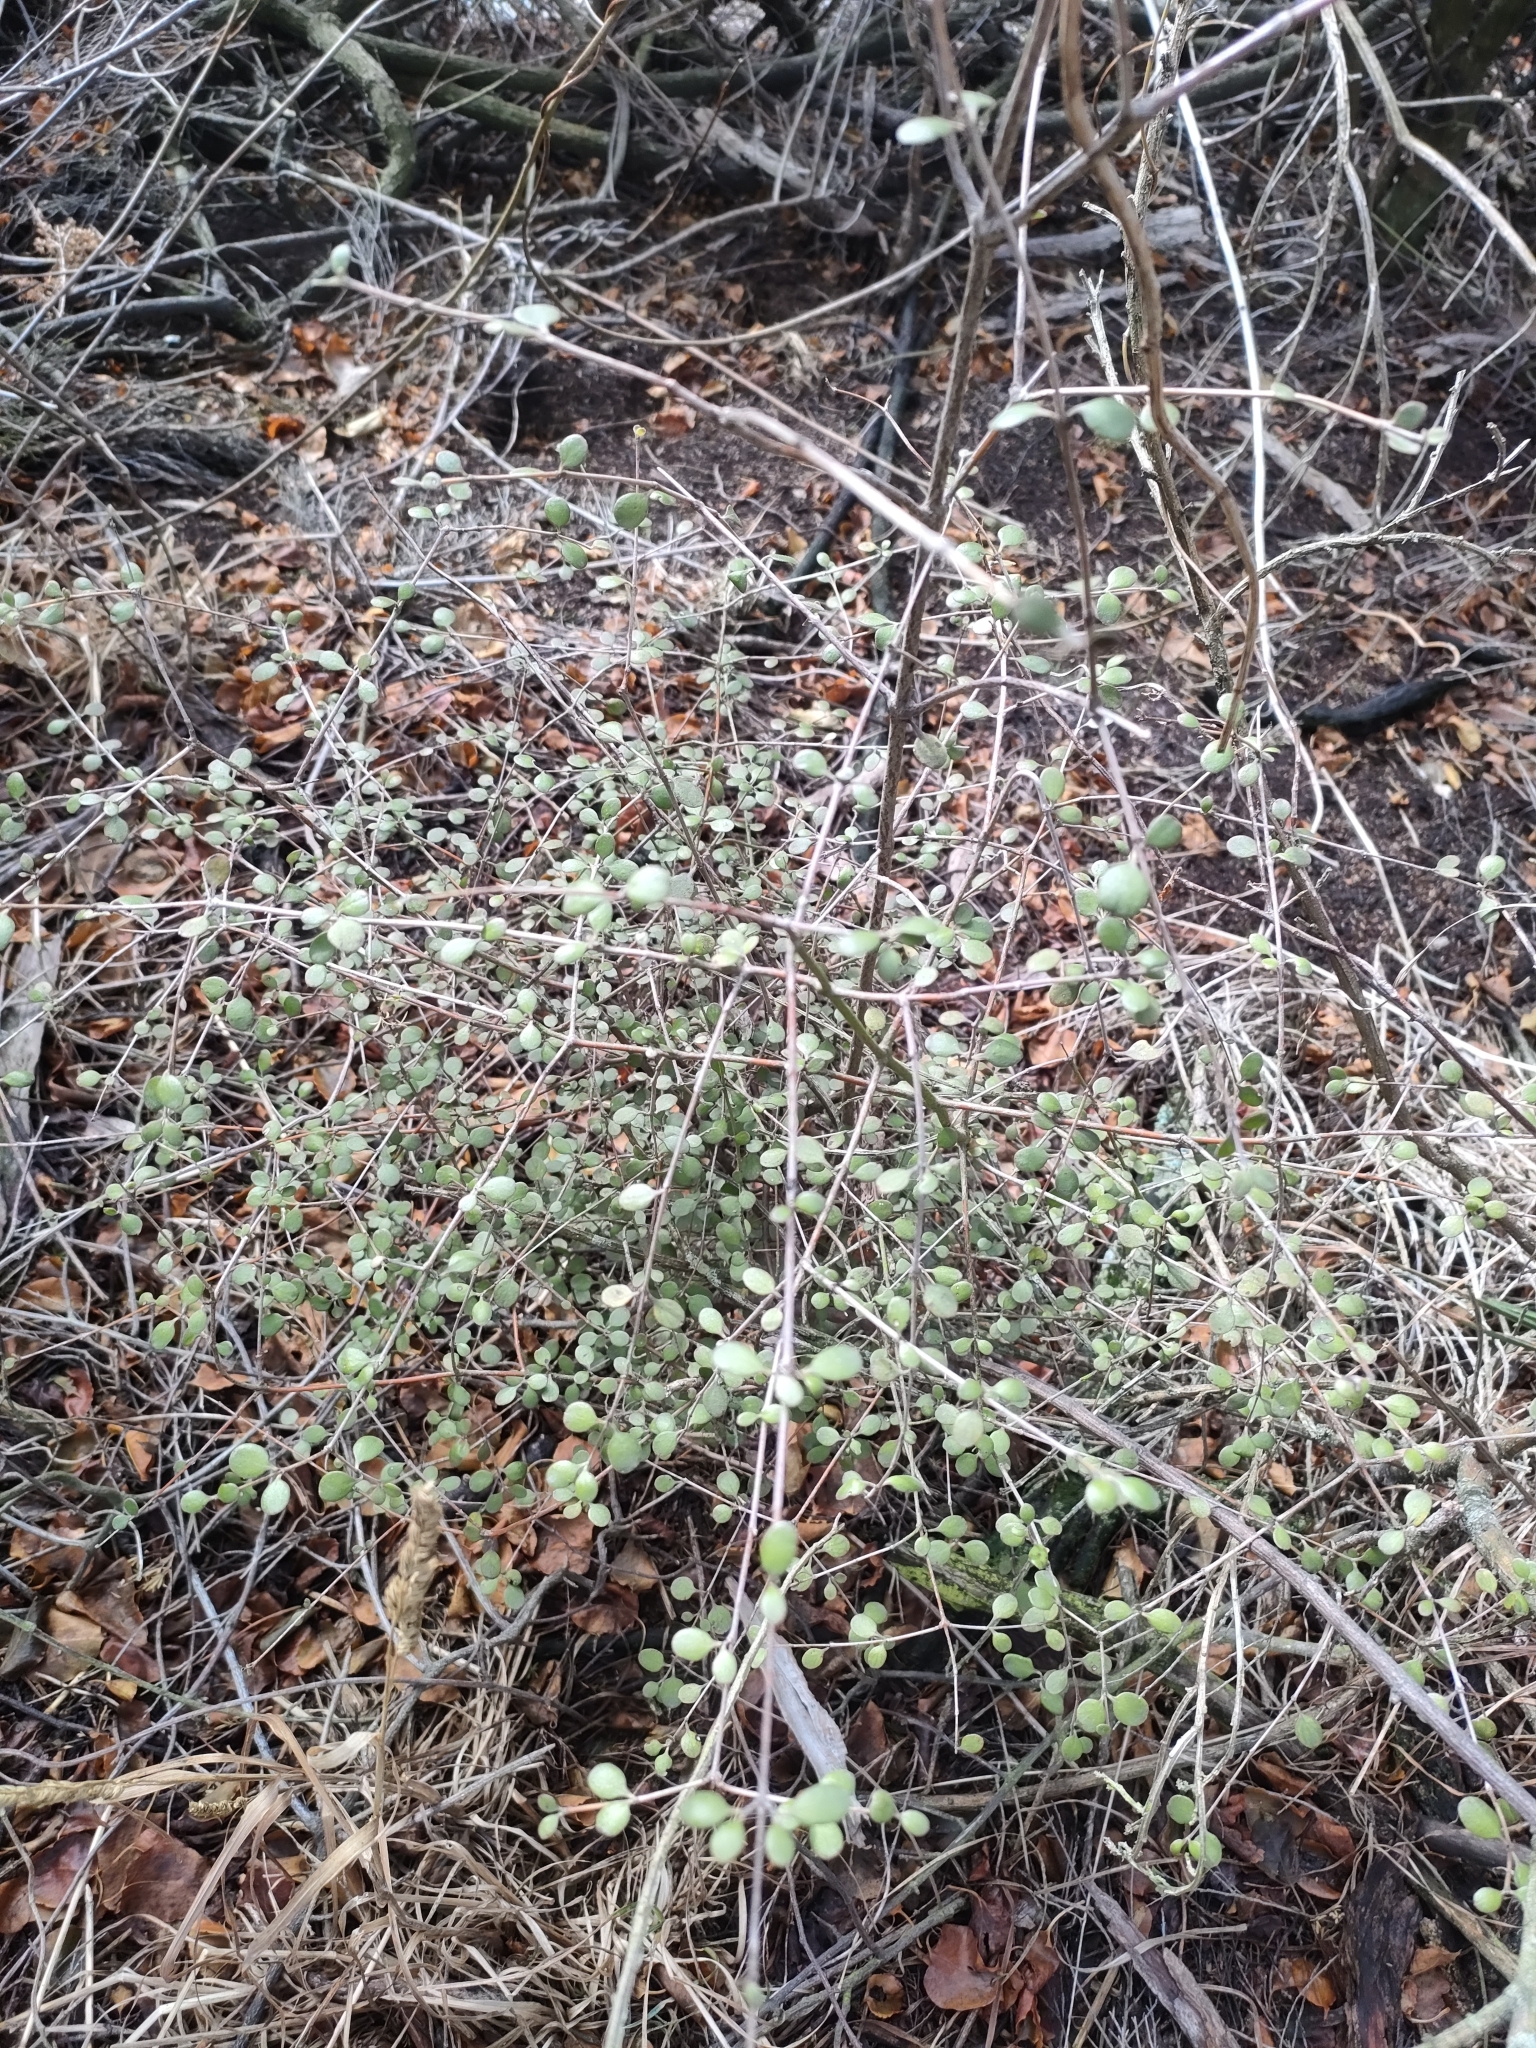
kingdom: Plantae
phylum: Tracheophyta
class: Magnoliopsida
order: Gentianales
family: Rubiaceae
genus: Coprosma
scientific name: Coprosma crassifolia
